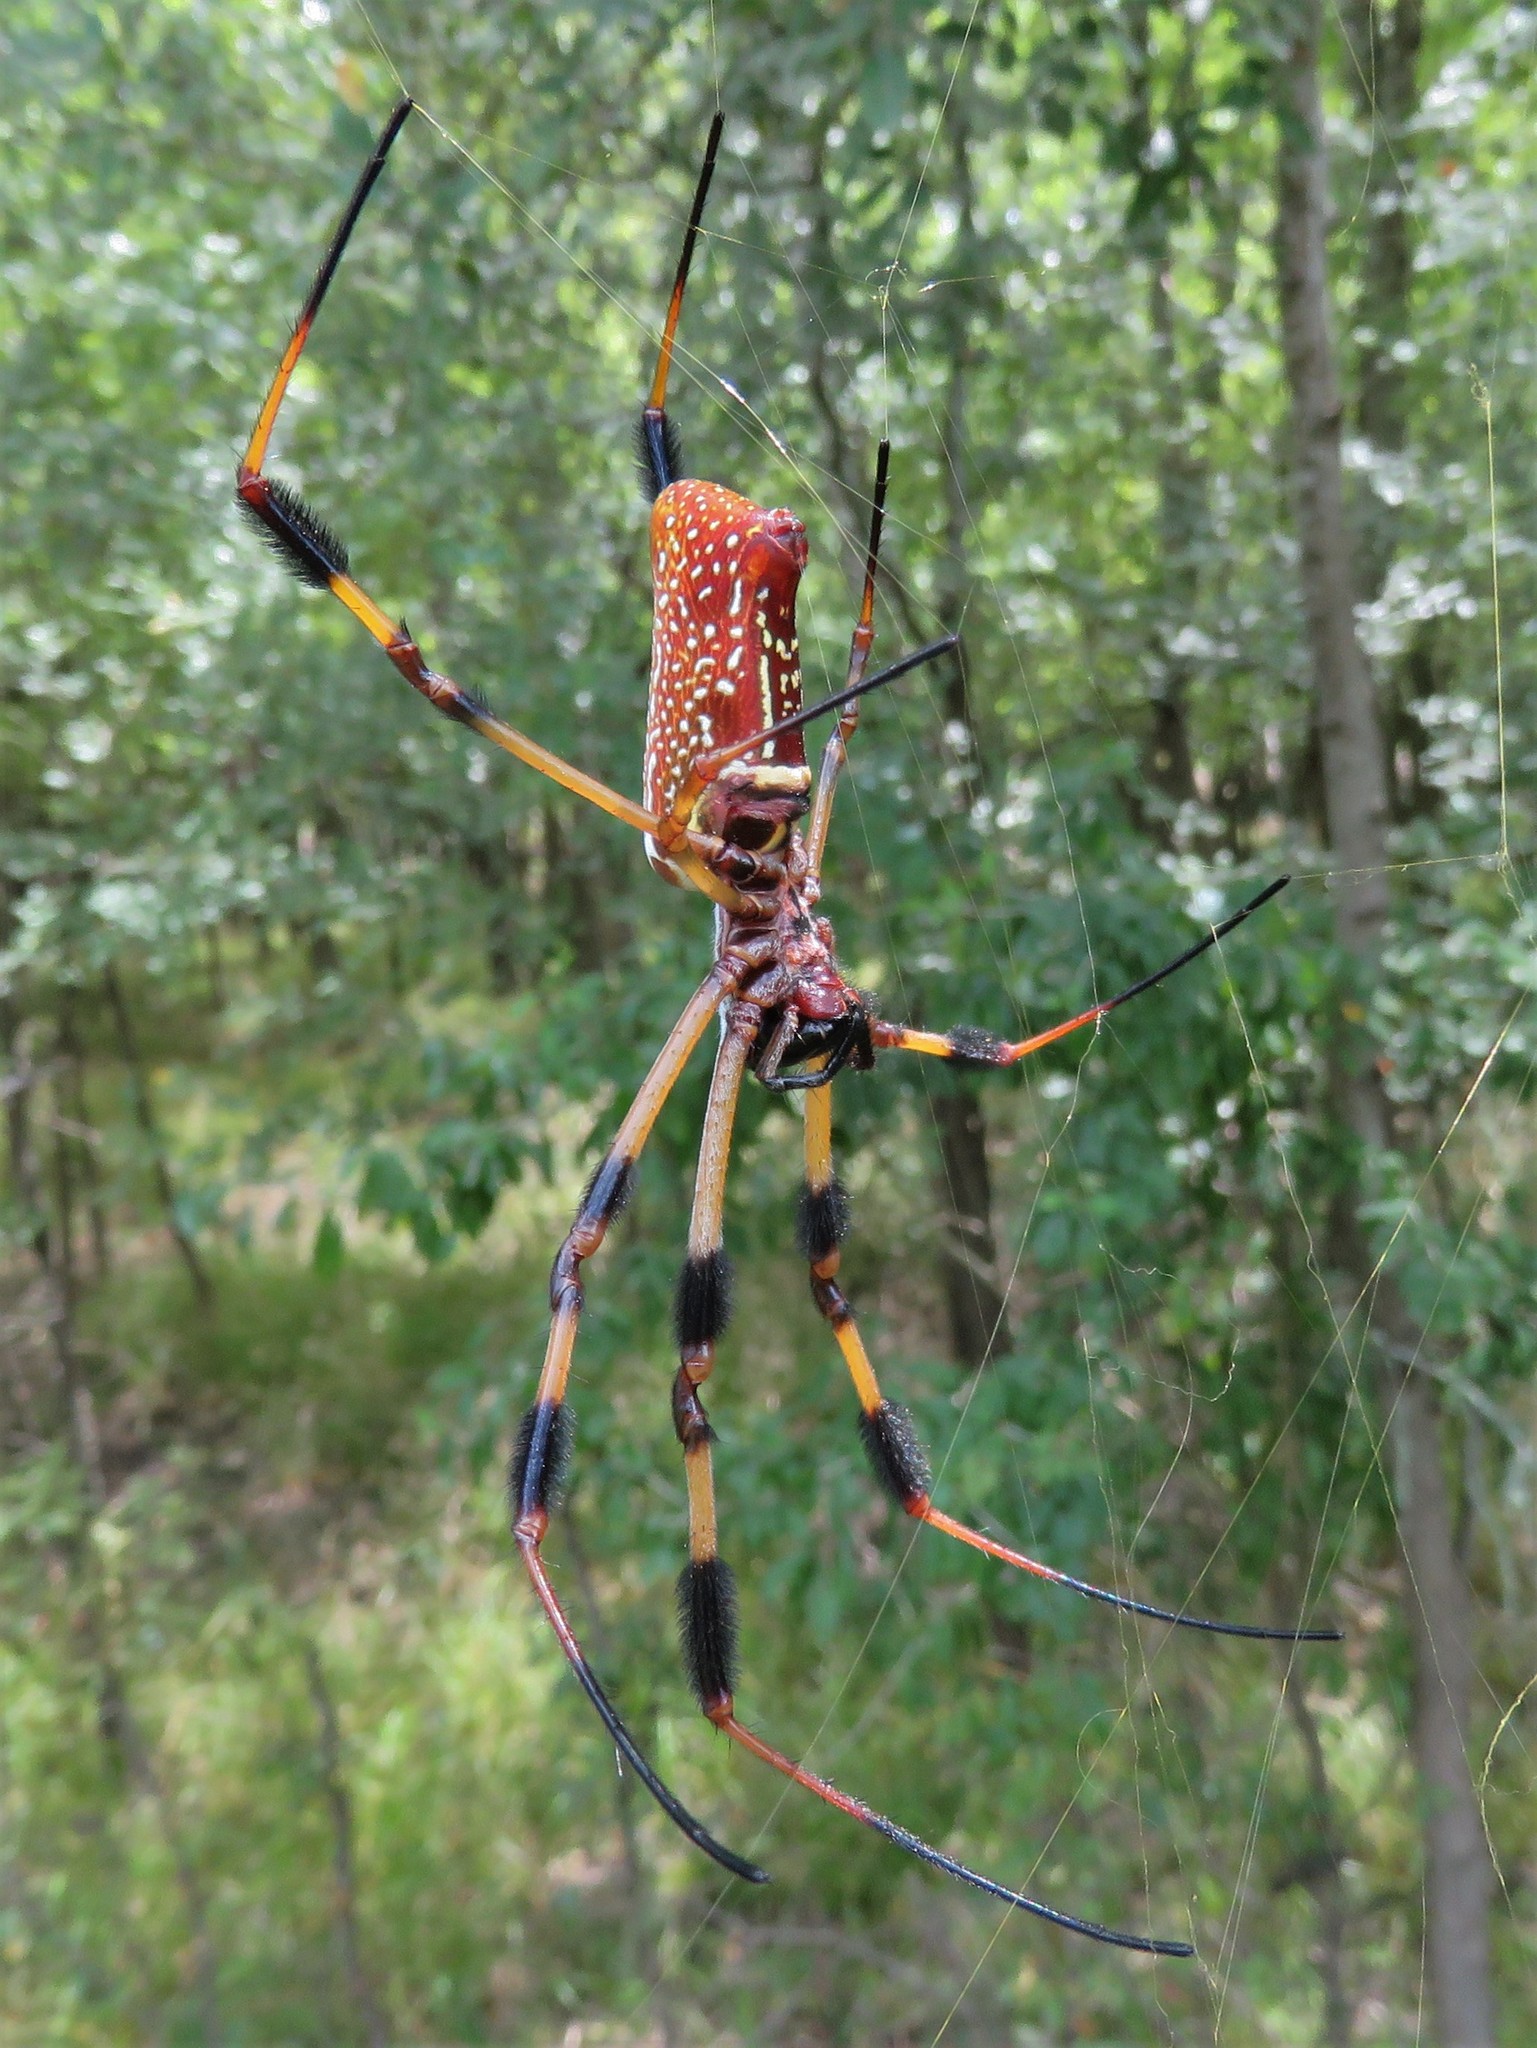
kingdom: Animalia
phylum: Arthropoda
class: Arachnida
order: Araneae
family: Araneidae
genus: Trichonephila
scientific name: Trichonephila clavipes
